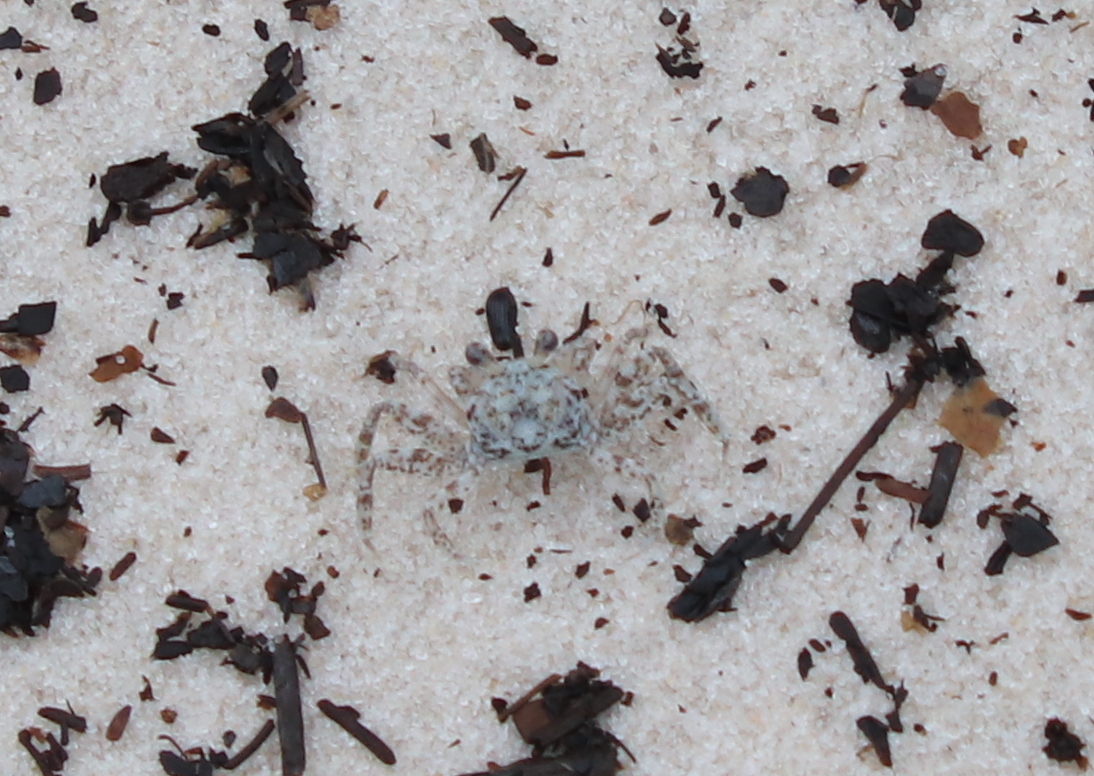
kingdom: Animalia
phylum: Arthropoda
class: Malacostraca
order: Decapoda
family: Ocypodidae
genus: Ocypode
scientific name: Ocypode quadrata
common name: Ghost crab
